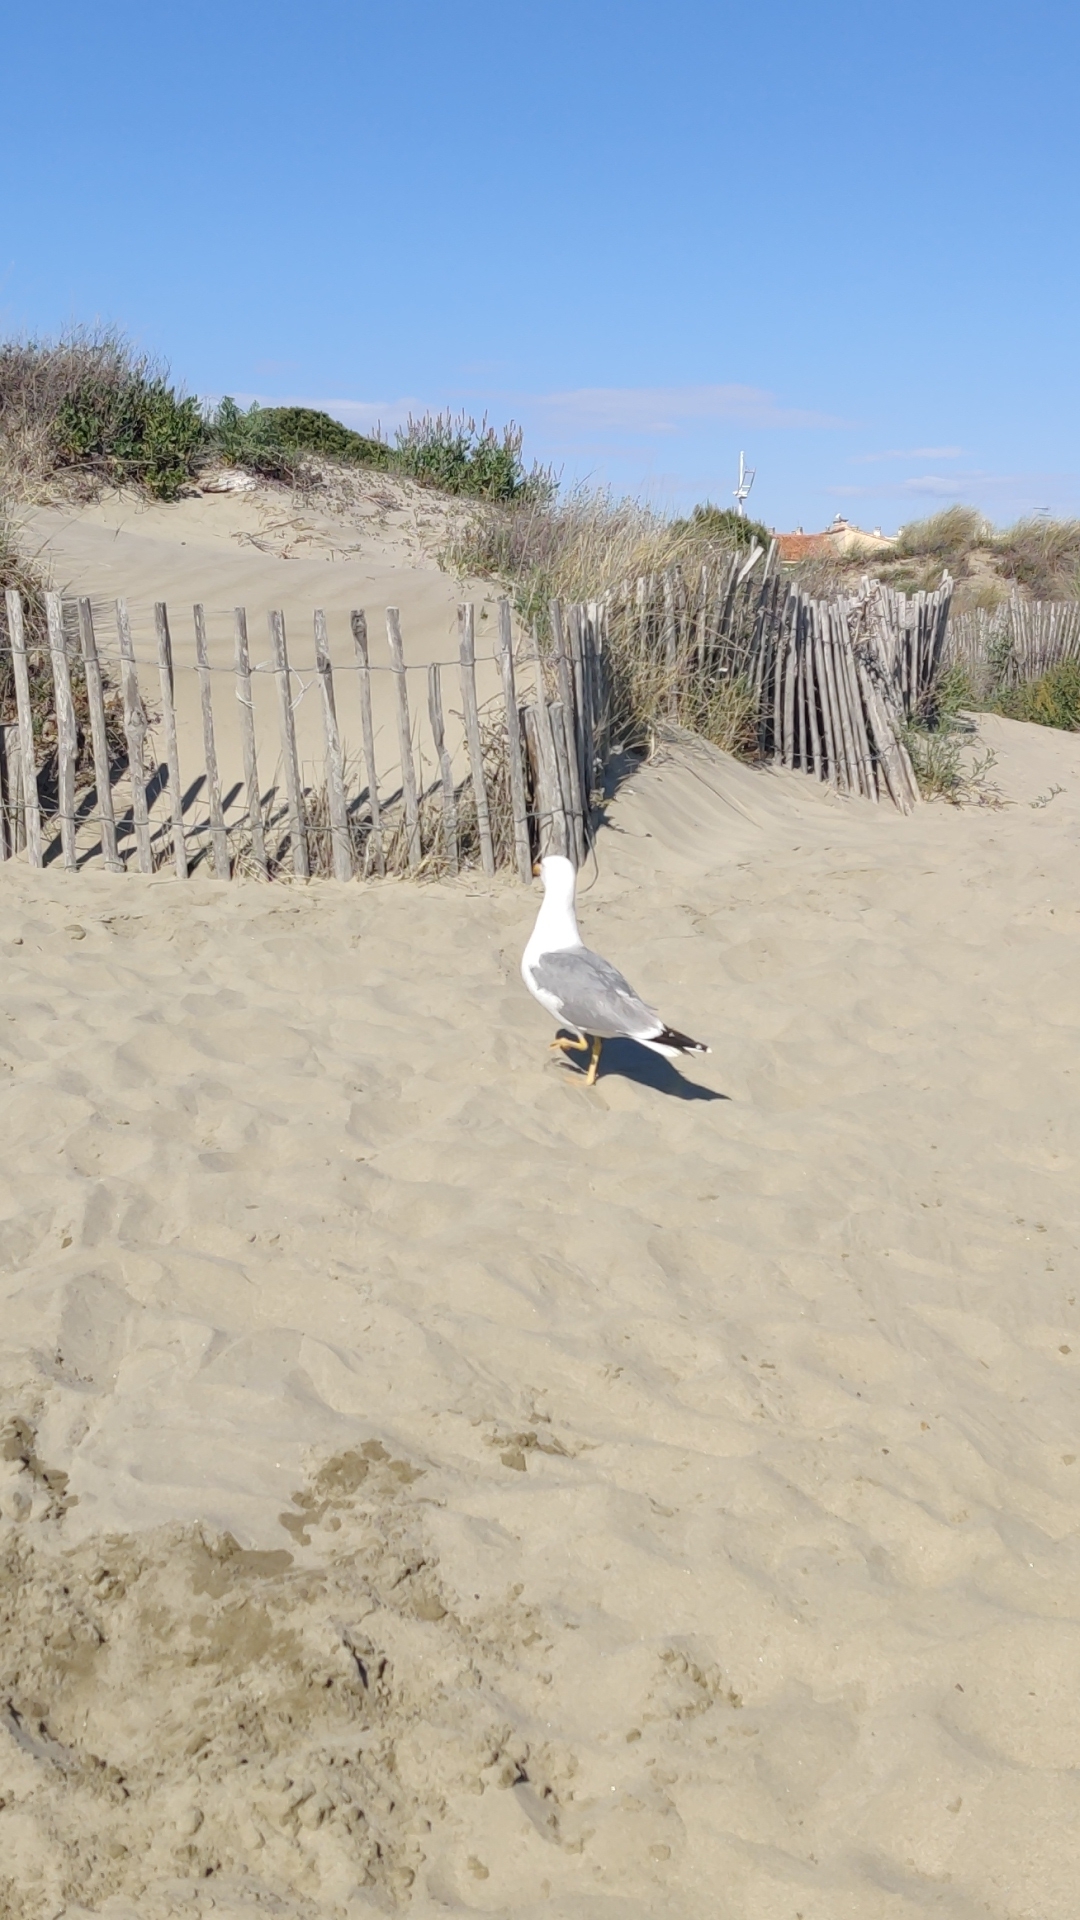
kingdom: Animalia
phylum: Chordata
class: Aves
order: Charadriiformes
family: Laridae
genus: Larus
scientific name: Larus michahellis
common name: Yellow-legged gull
